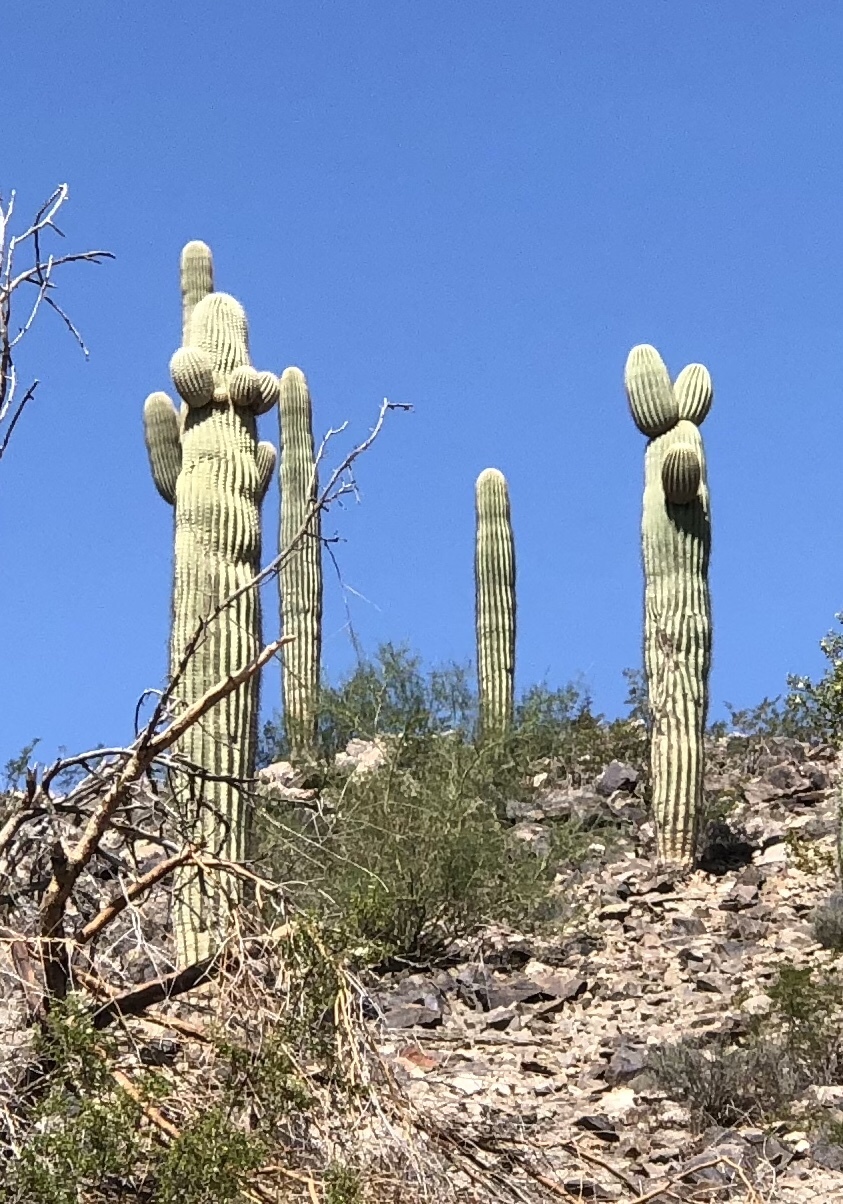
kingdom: Plantae
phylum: Tracheophyta
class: Magnoliopsida
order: Caryophyllales
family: Cactaceae
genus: Carnegiea
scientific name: Carnegiea gigantea
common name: Saguaro
